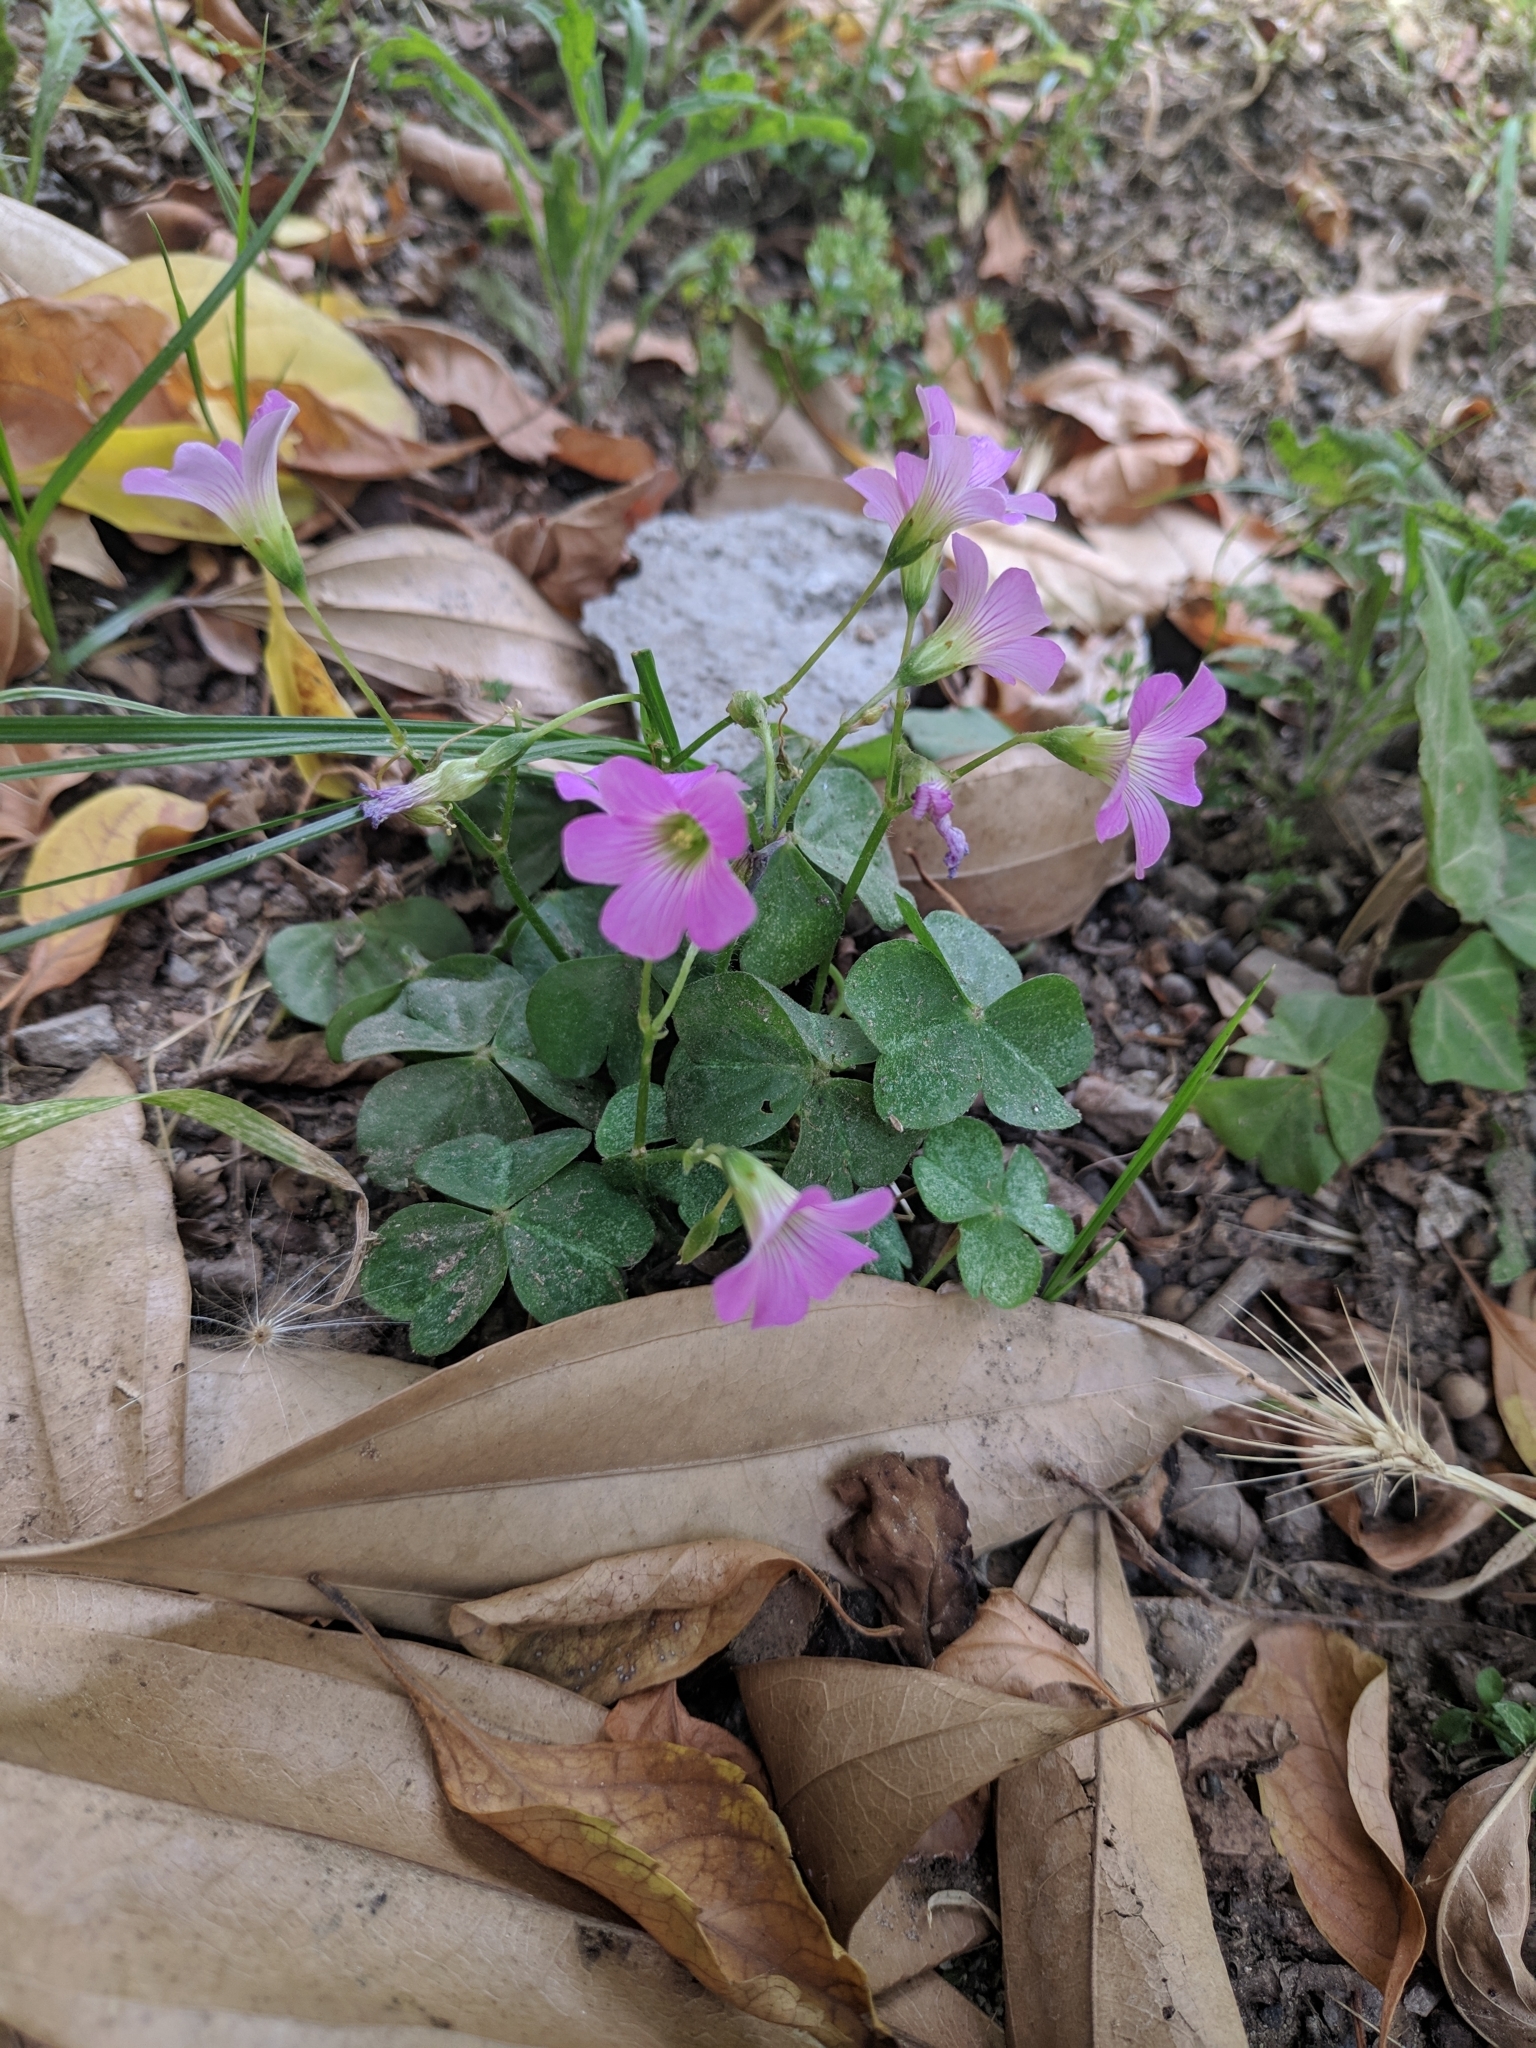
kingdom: Plantae
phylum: Tracheophyta
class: Magnoliopsida
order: Oxalidales
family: Oxalidaceae
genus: Oxalis
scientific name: Oxalis debilis
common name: Large-flowered pink-sorrel
